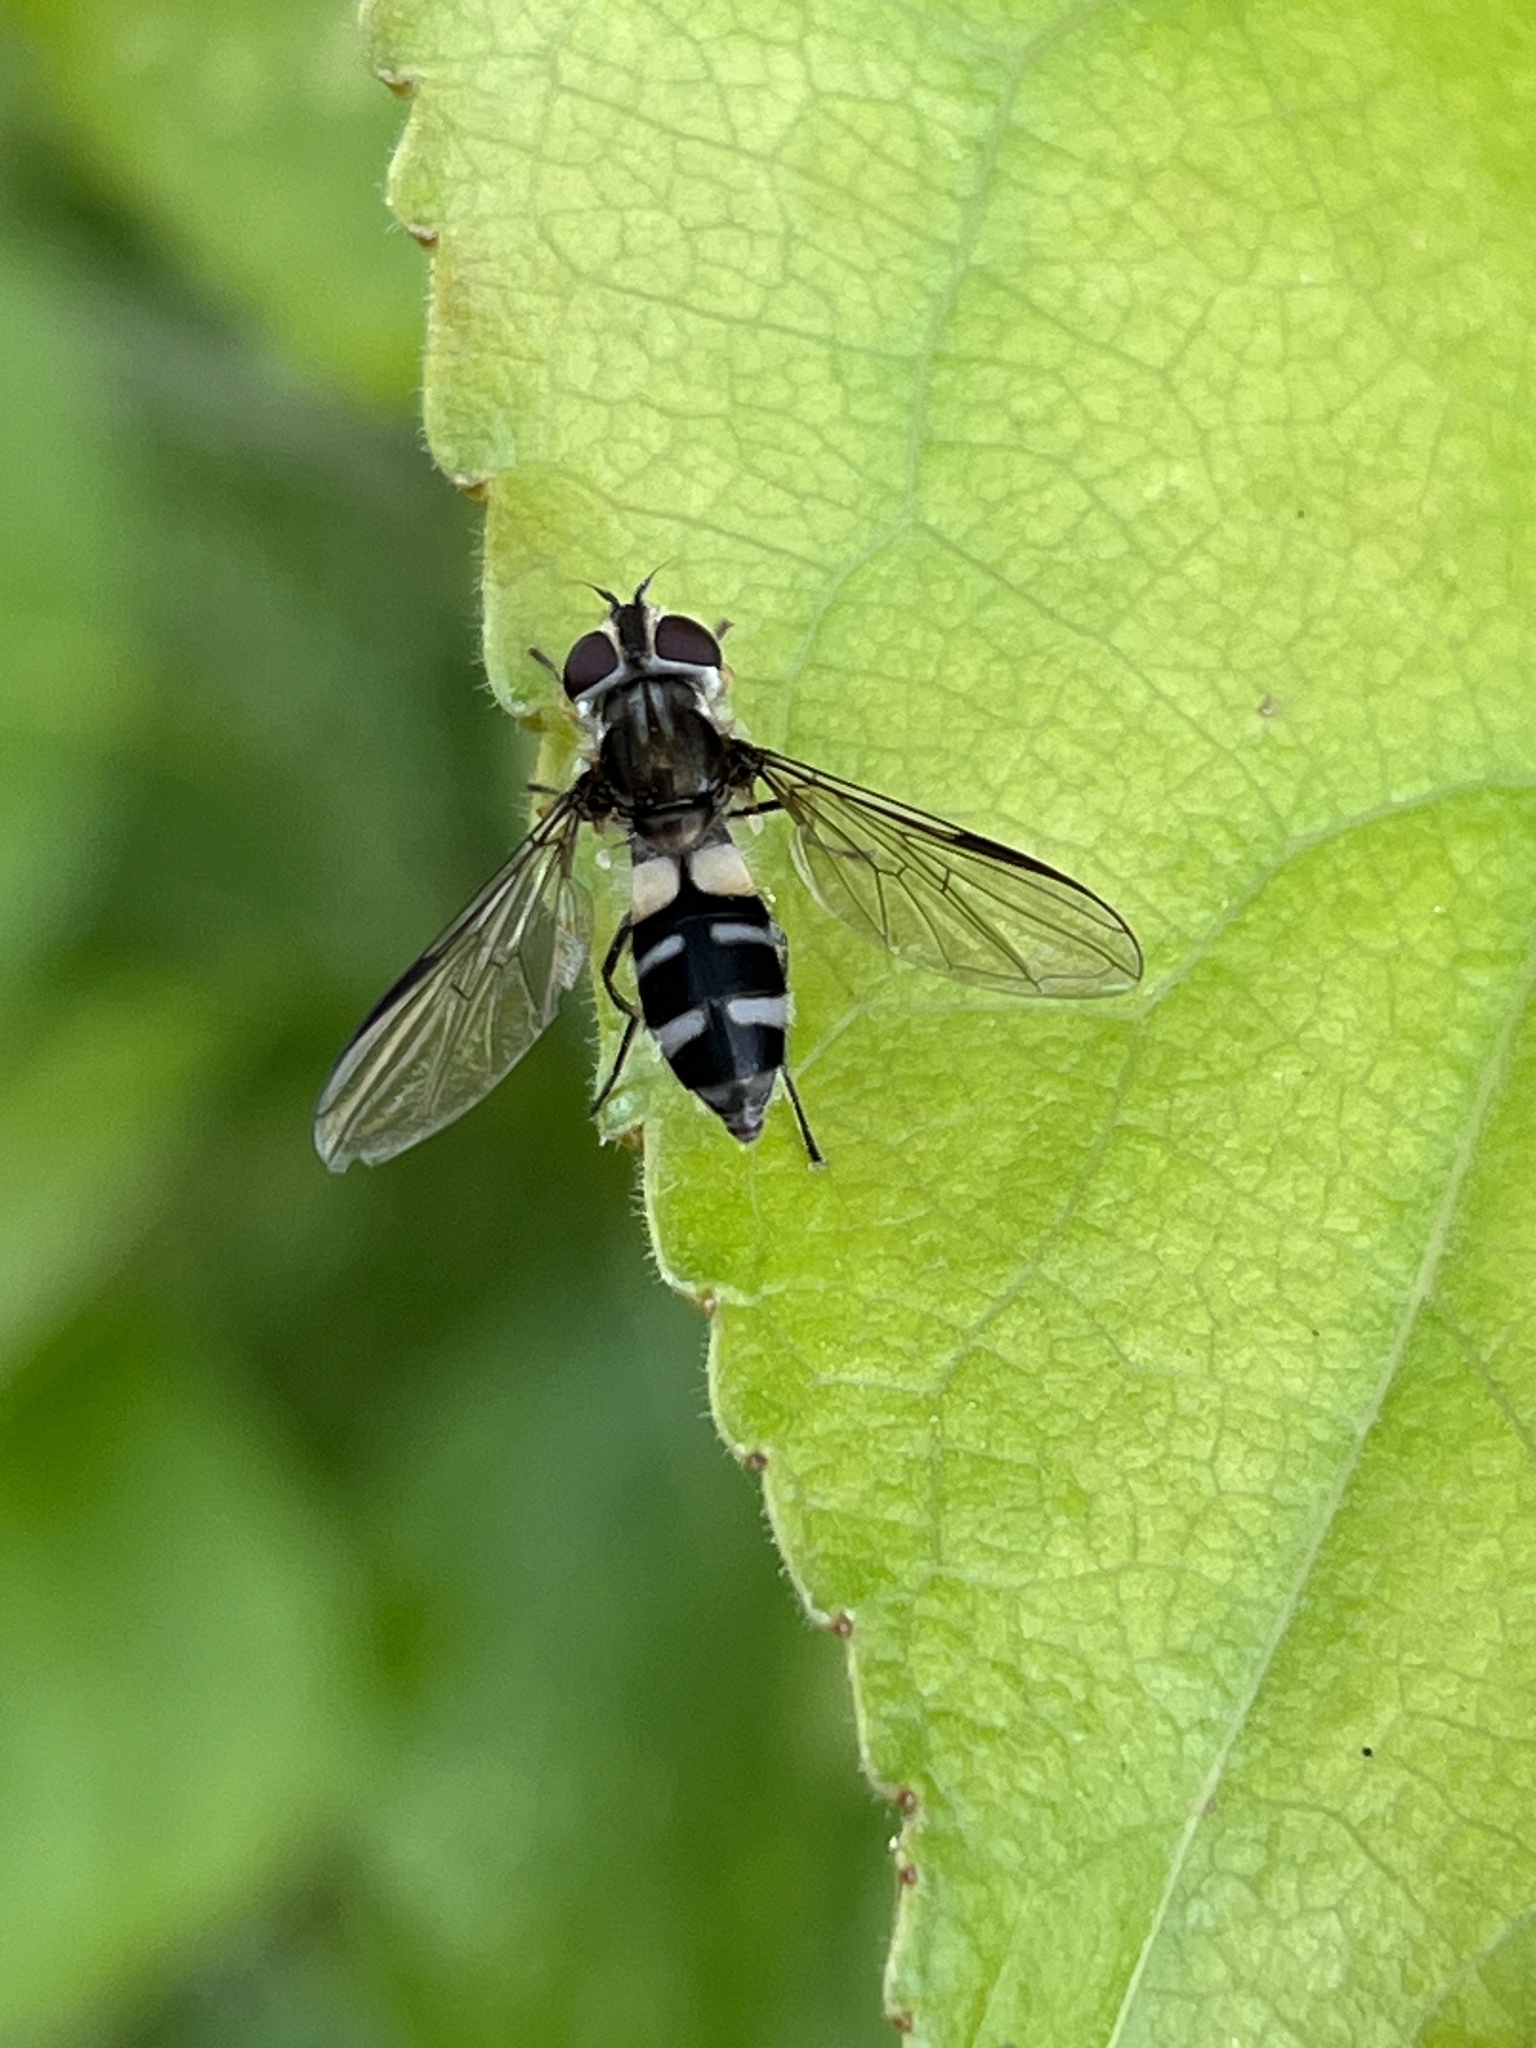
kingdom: Animalia
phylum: Arthropoda
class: Insecta
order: Diptera
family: Syrphidae
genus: Leucozona
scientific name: Leucozona laternaria
